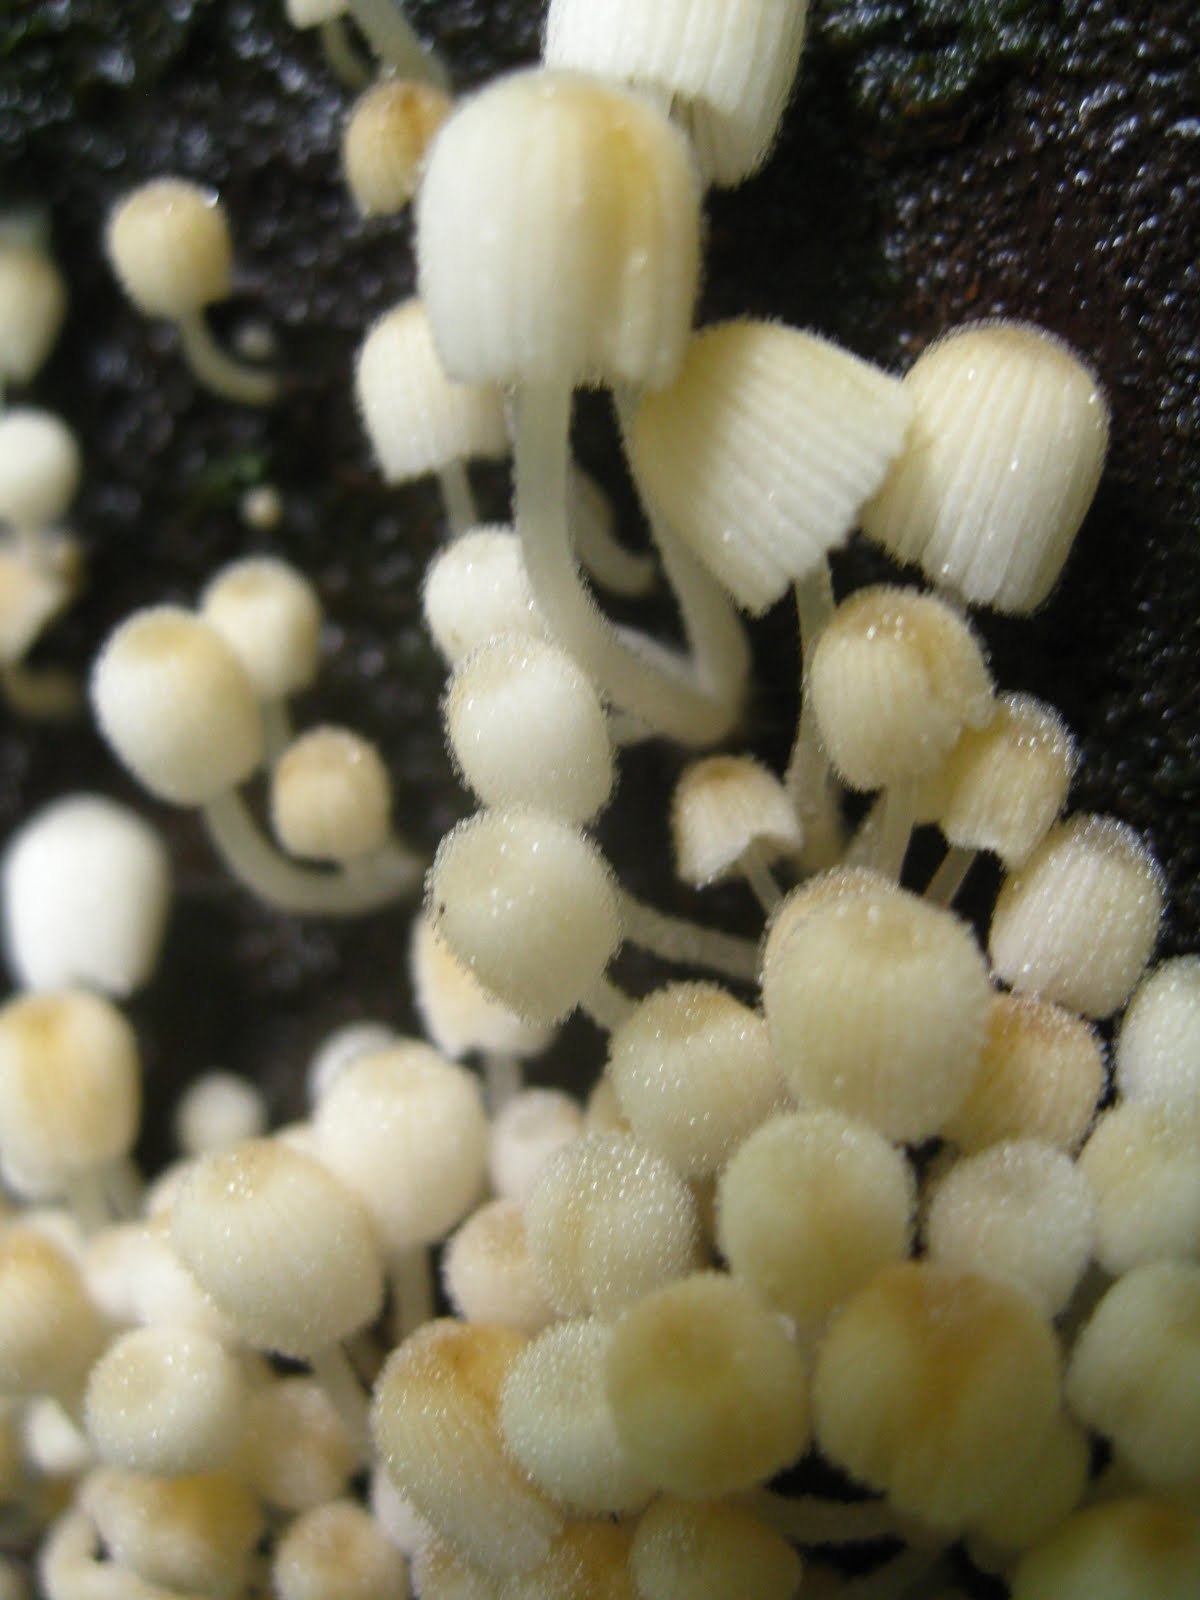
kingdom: Fungi
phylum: Basidiomycota
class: Agaricomycetes
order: Agaricales
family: Psathyrellaceae
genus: Coprinellus
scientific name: Coprinellus disseminatus
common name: Fairies' bonnets
